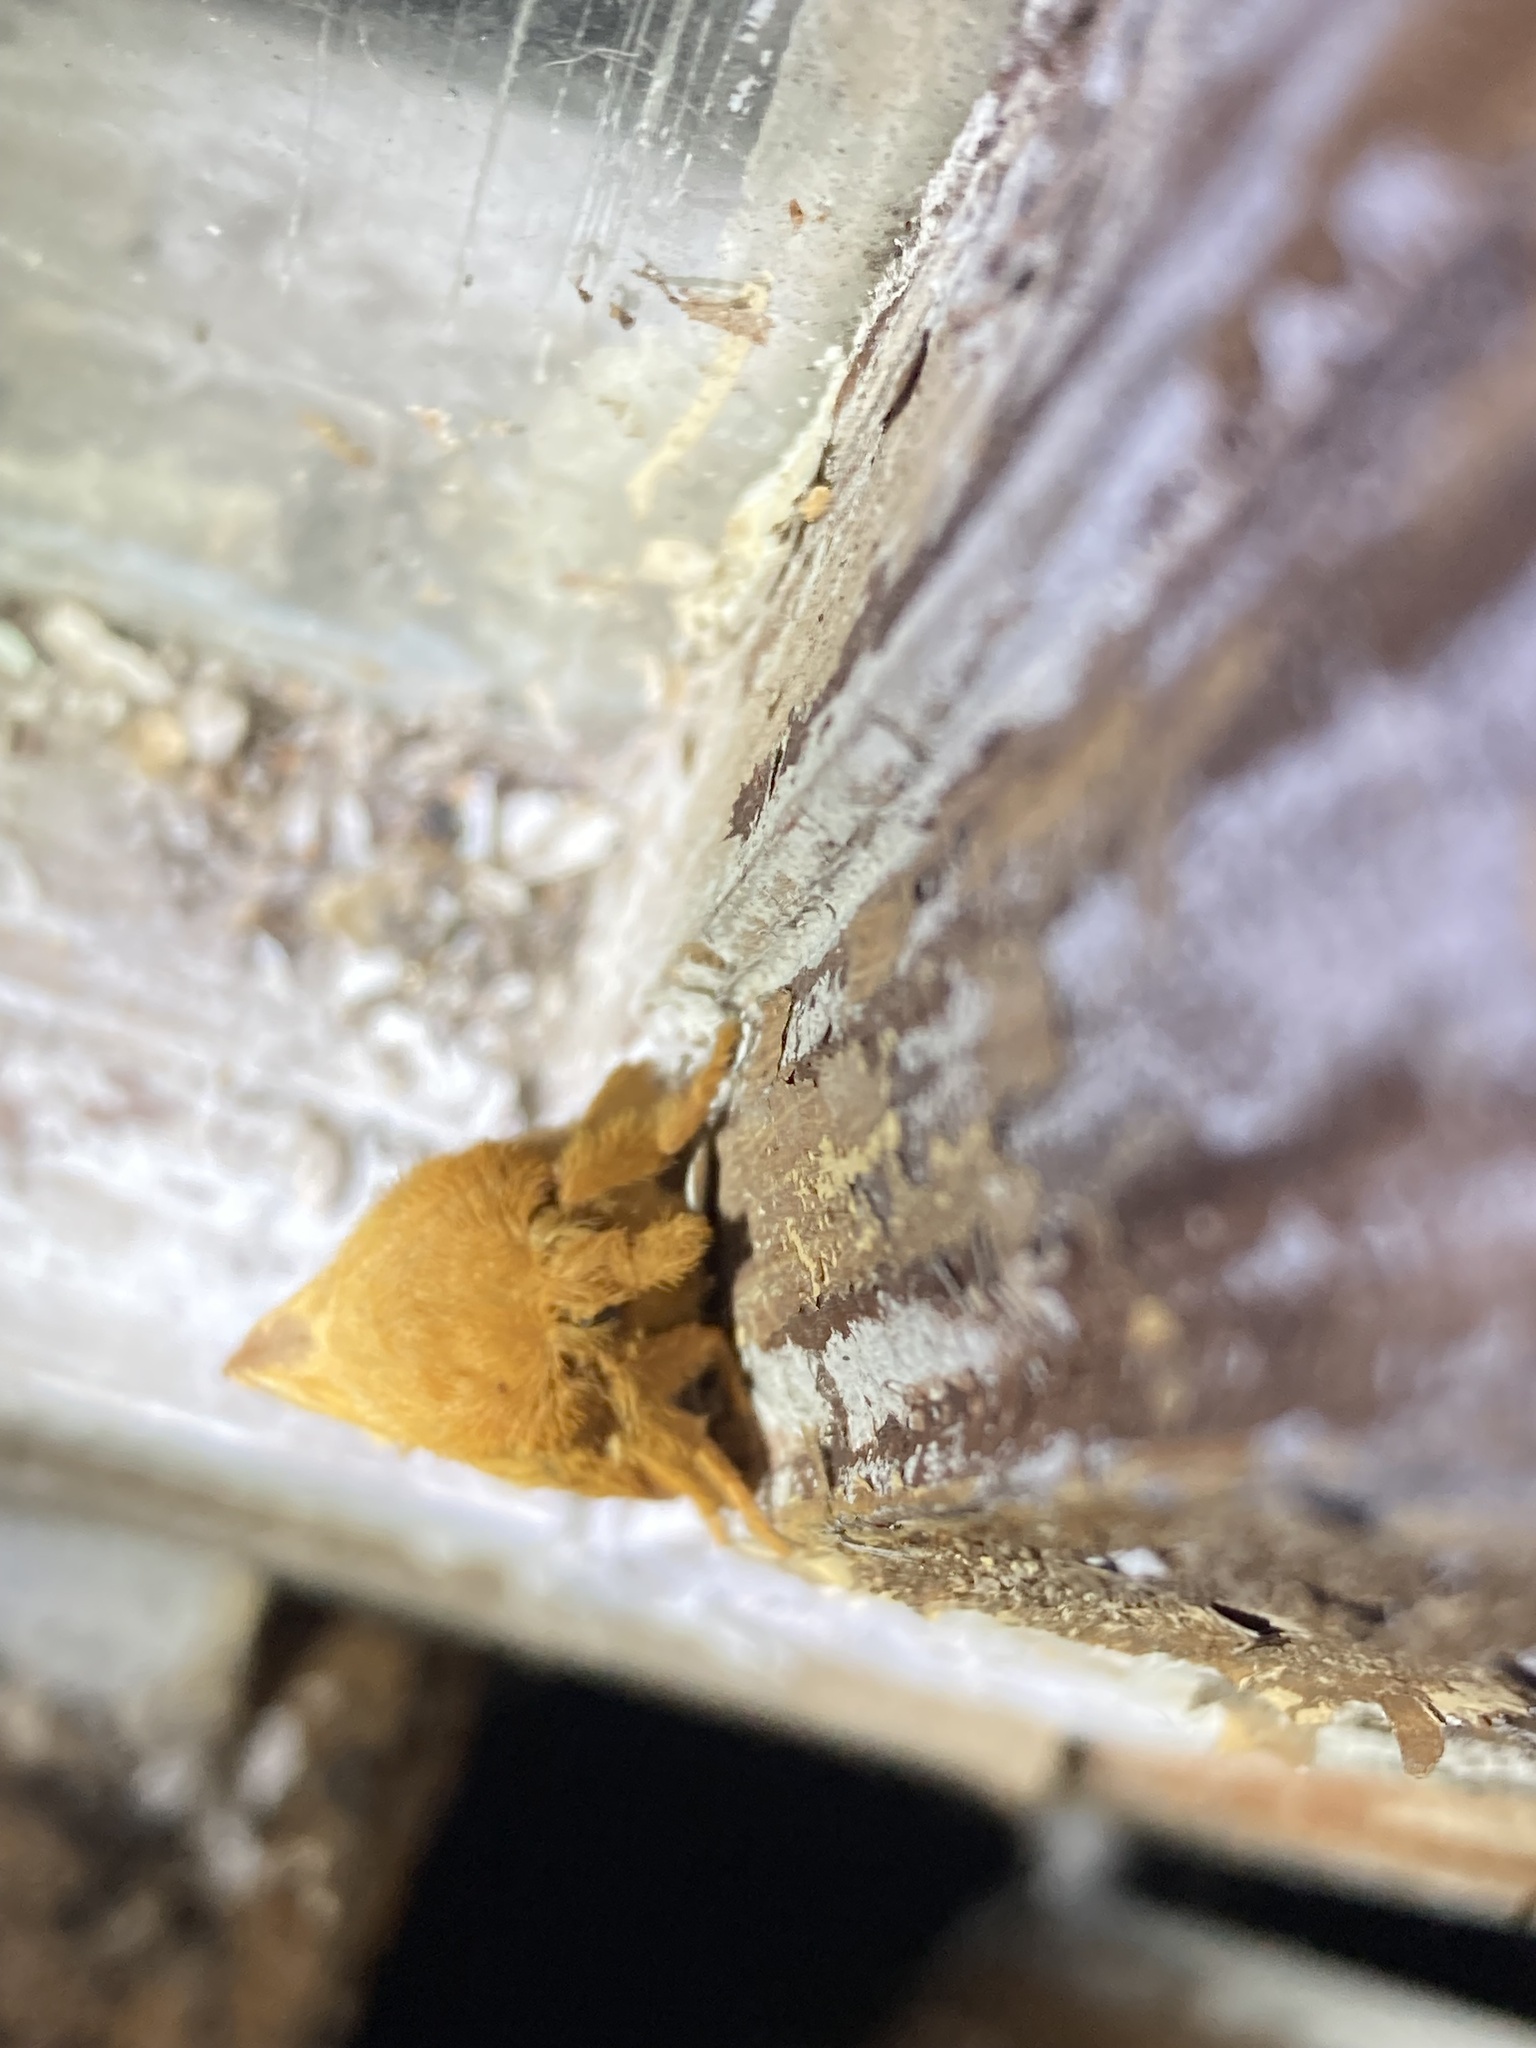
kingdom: Animalia
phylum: Arthropoda
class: Insecta
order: Lepidoptera
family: Lasiocampidae
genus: Euthrix
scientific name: Euthrix potatoria
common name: Drinker
